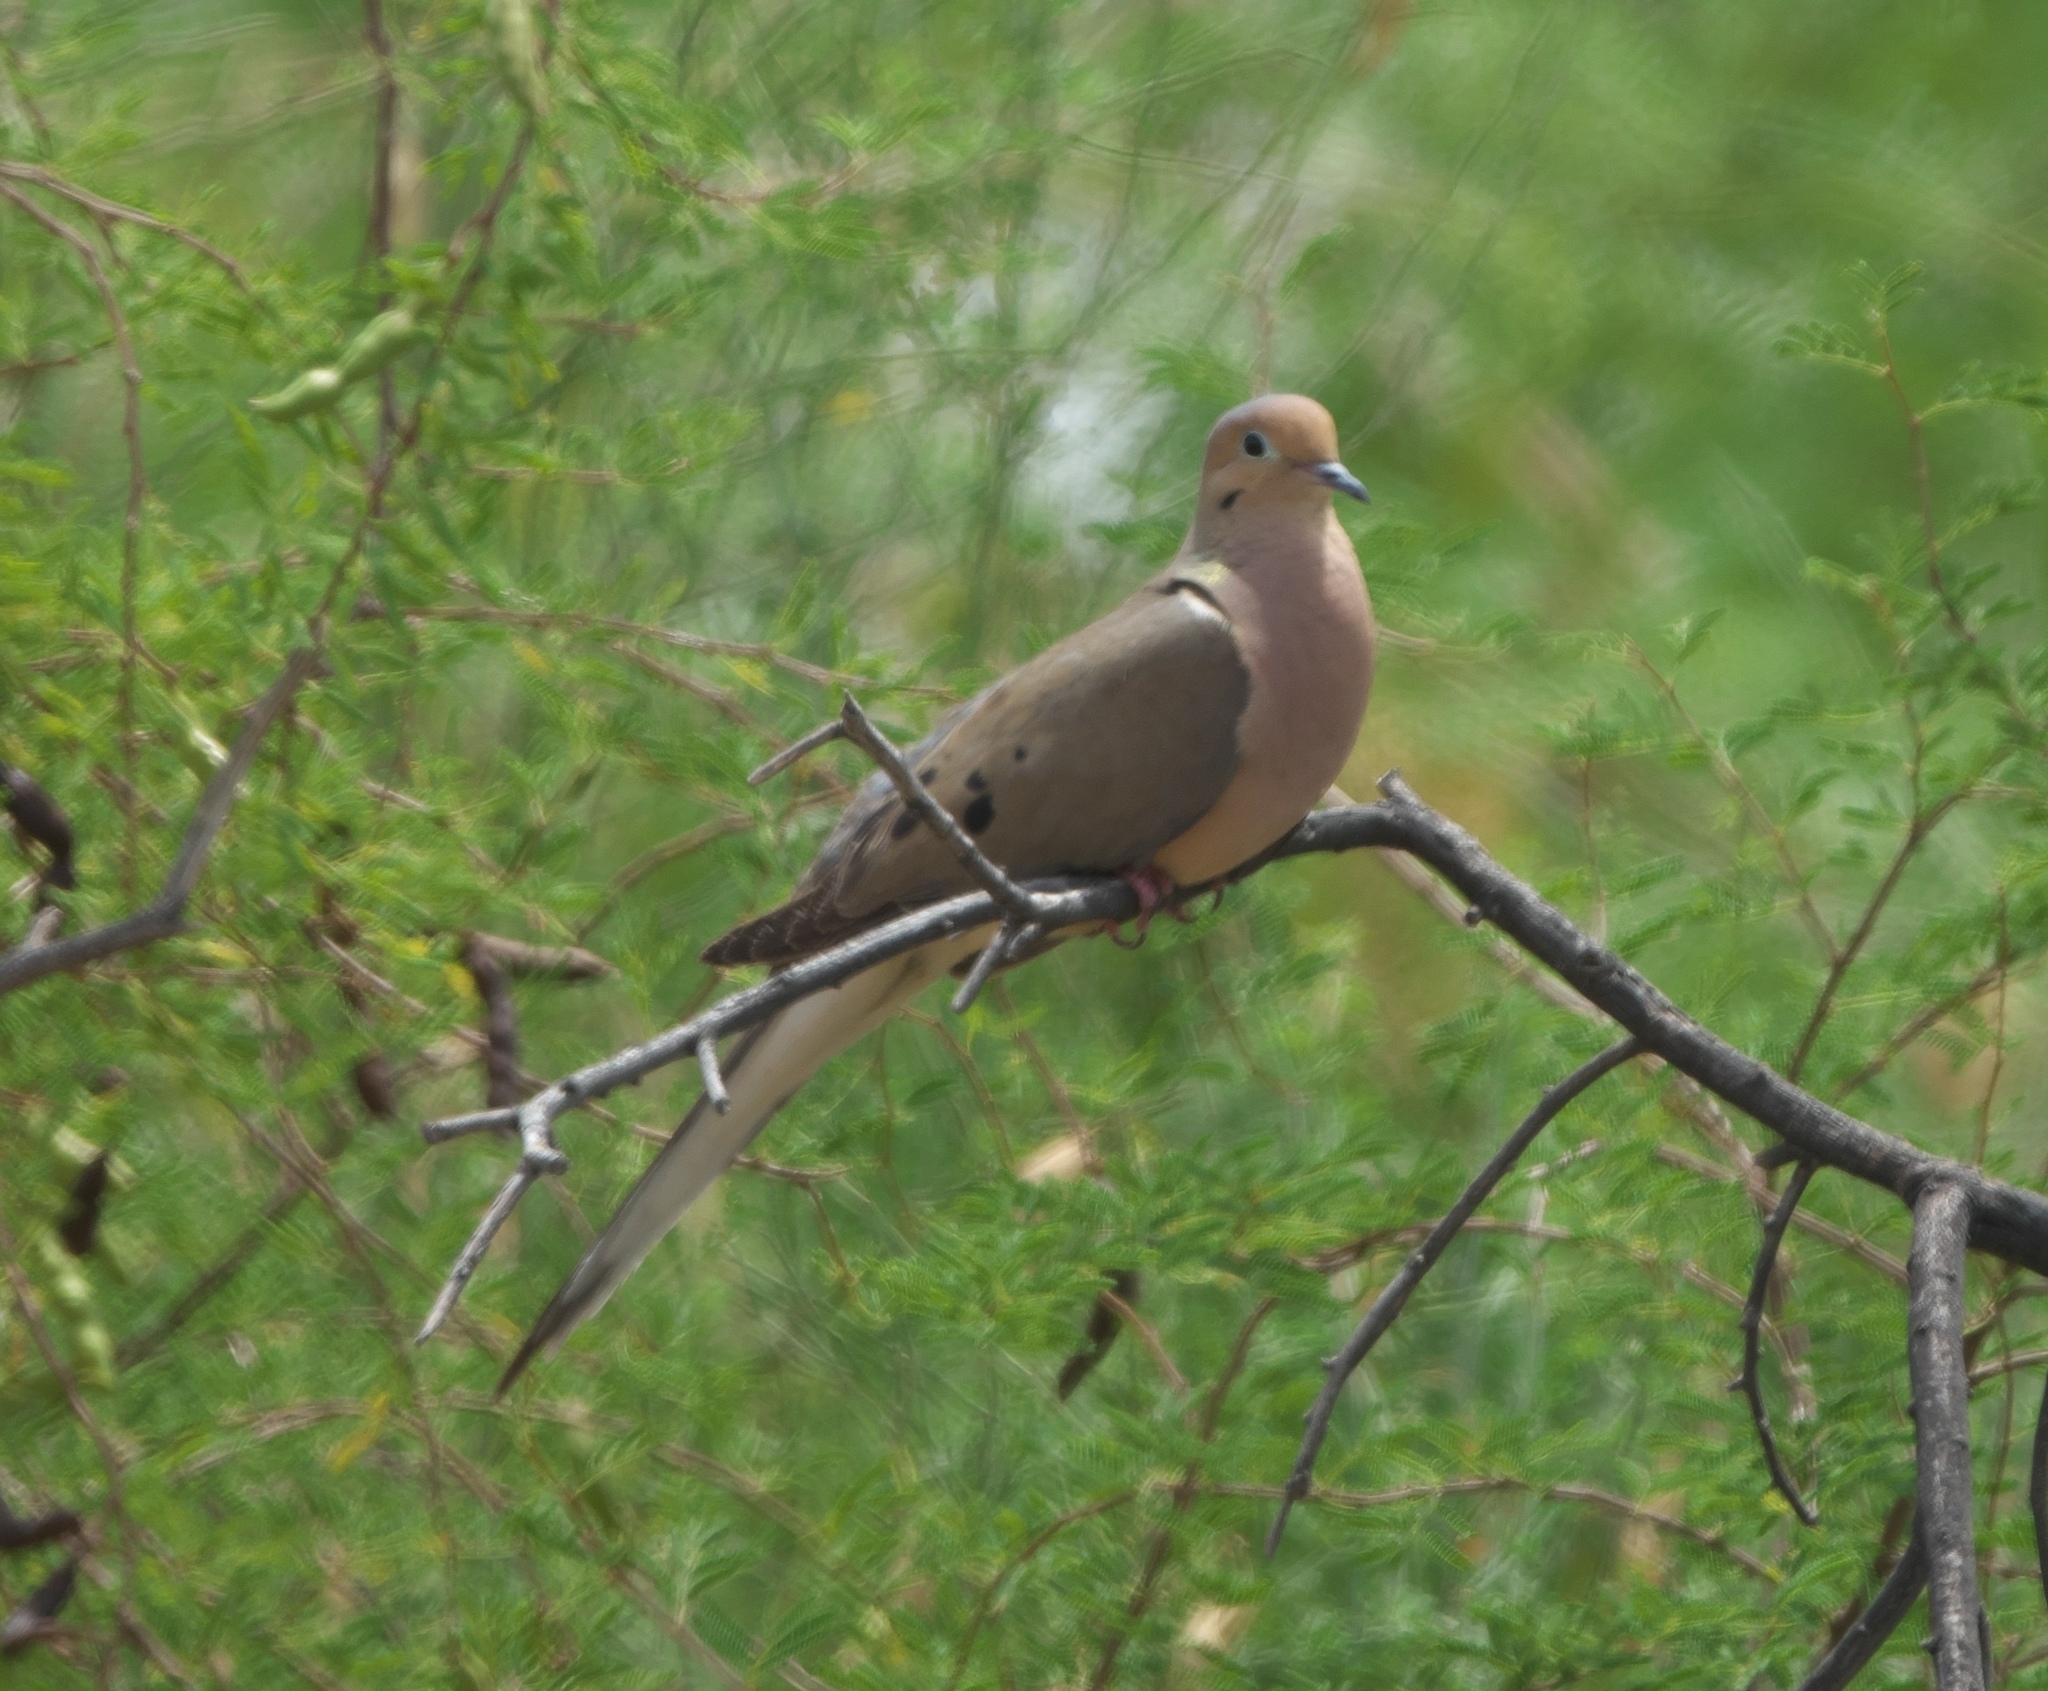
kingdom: Animalia
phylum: Chordata
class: Aves
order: Columbiformes
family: Columbidae
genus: Zenaida
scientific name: Zenaida macroura
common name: Mourning dove
